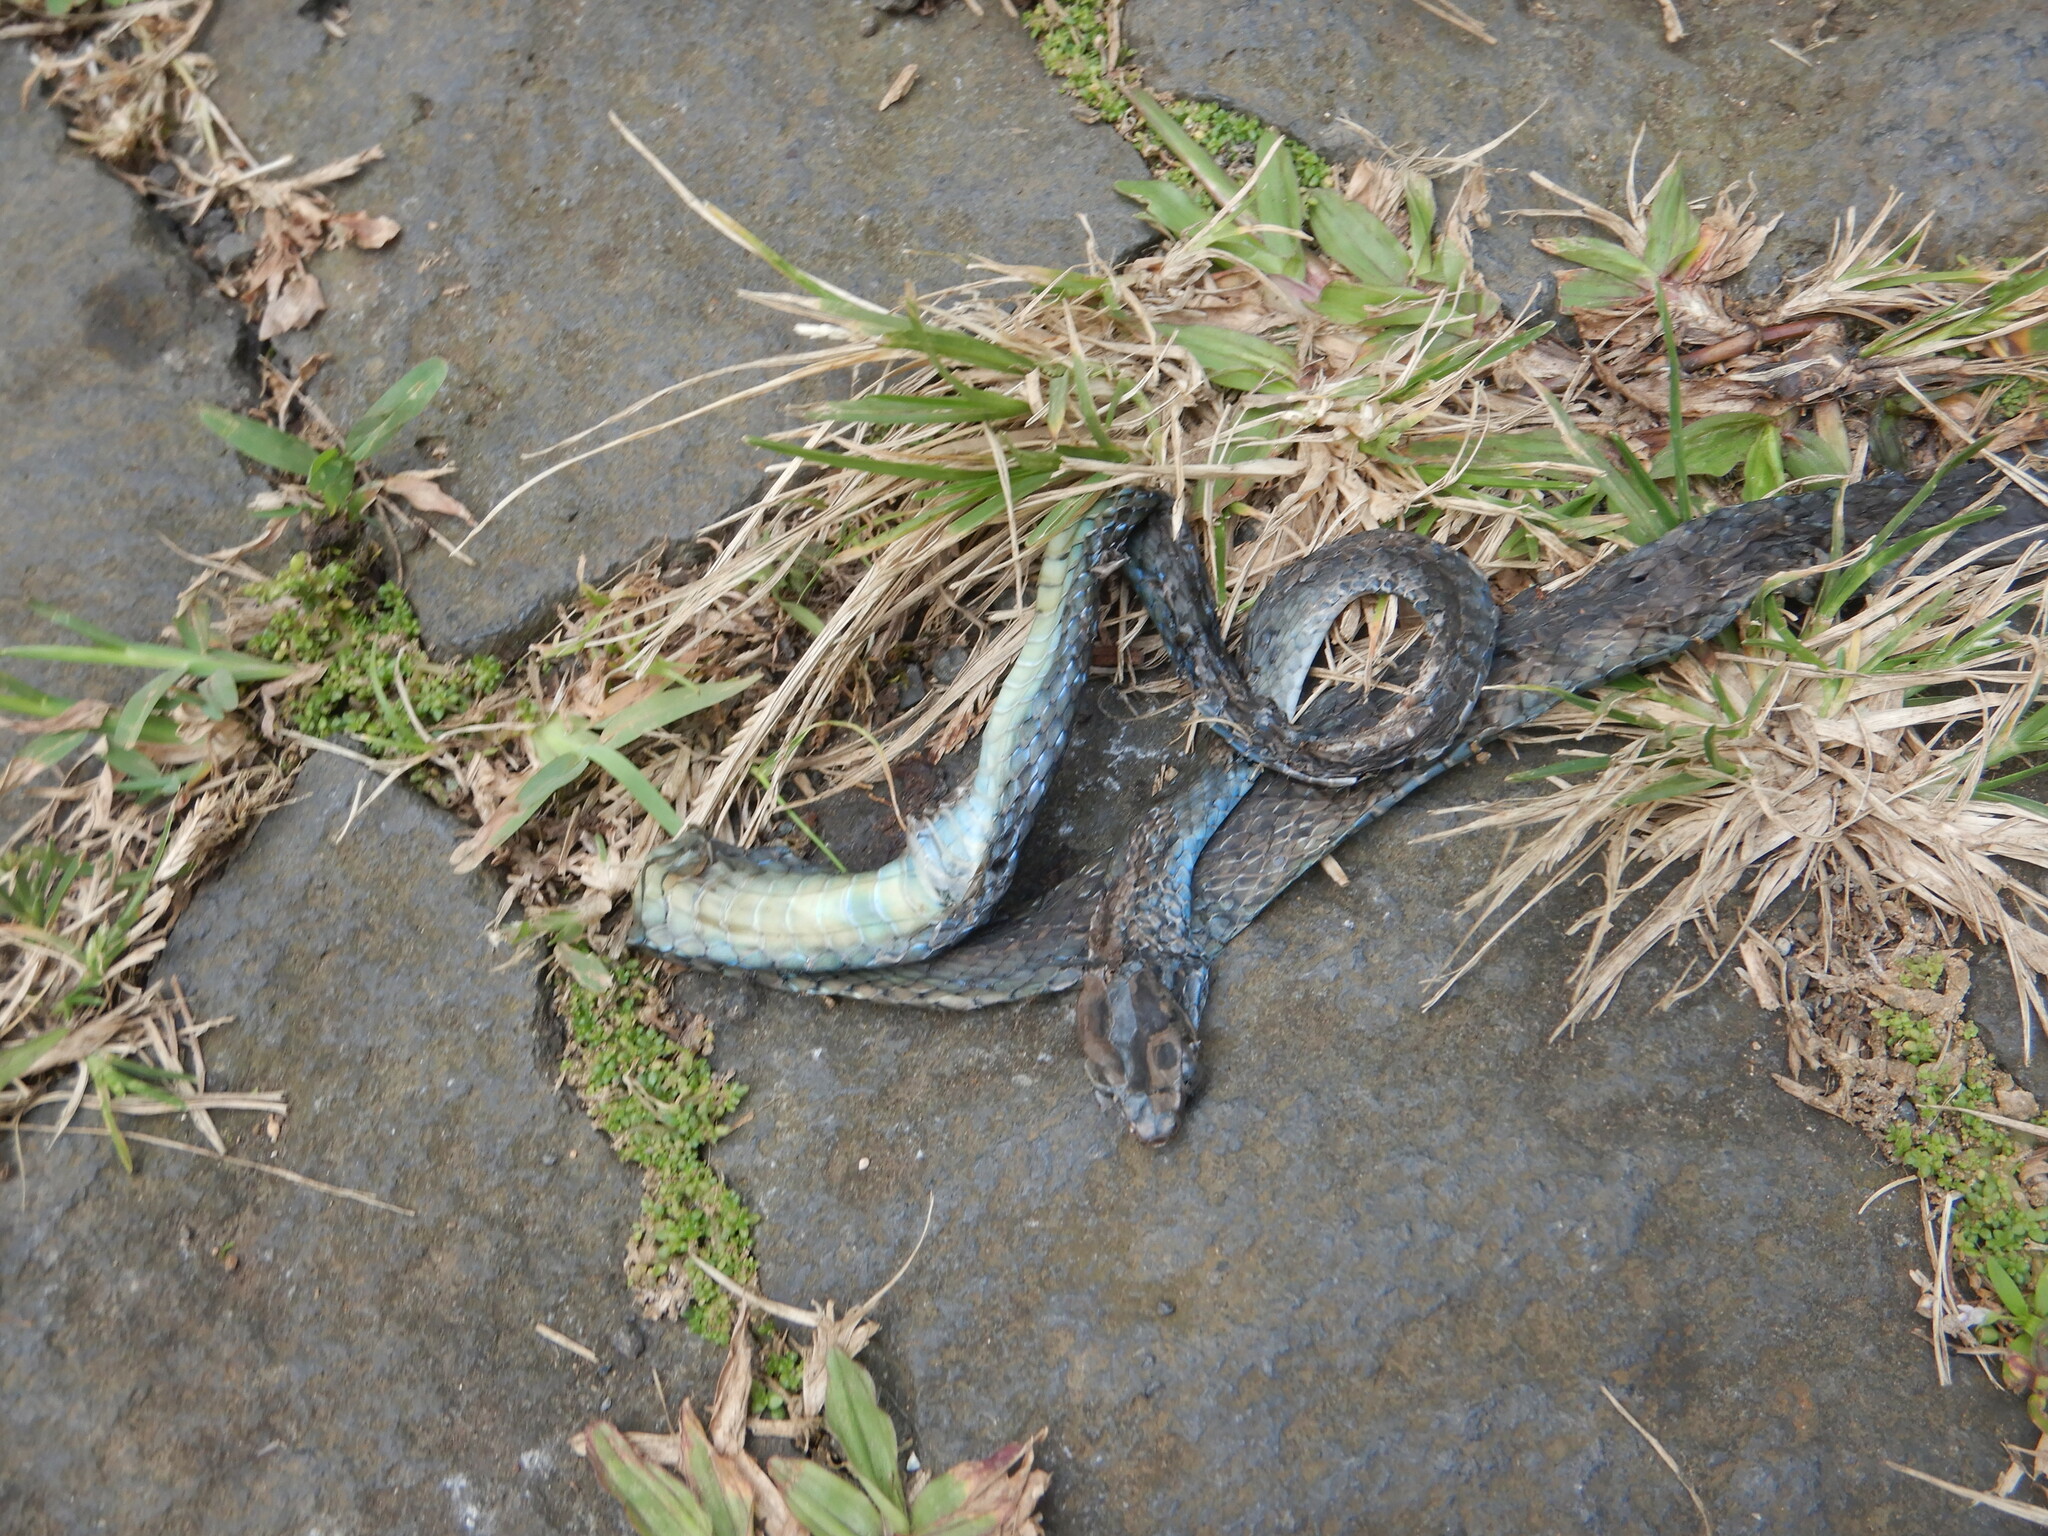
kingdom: Animalia
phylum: Chordata
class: Squamata
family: Colubridae
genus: Philothamnus
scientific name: Philothamnus thomensis
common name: Sao tome wood snake
